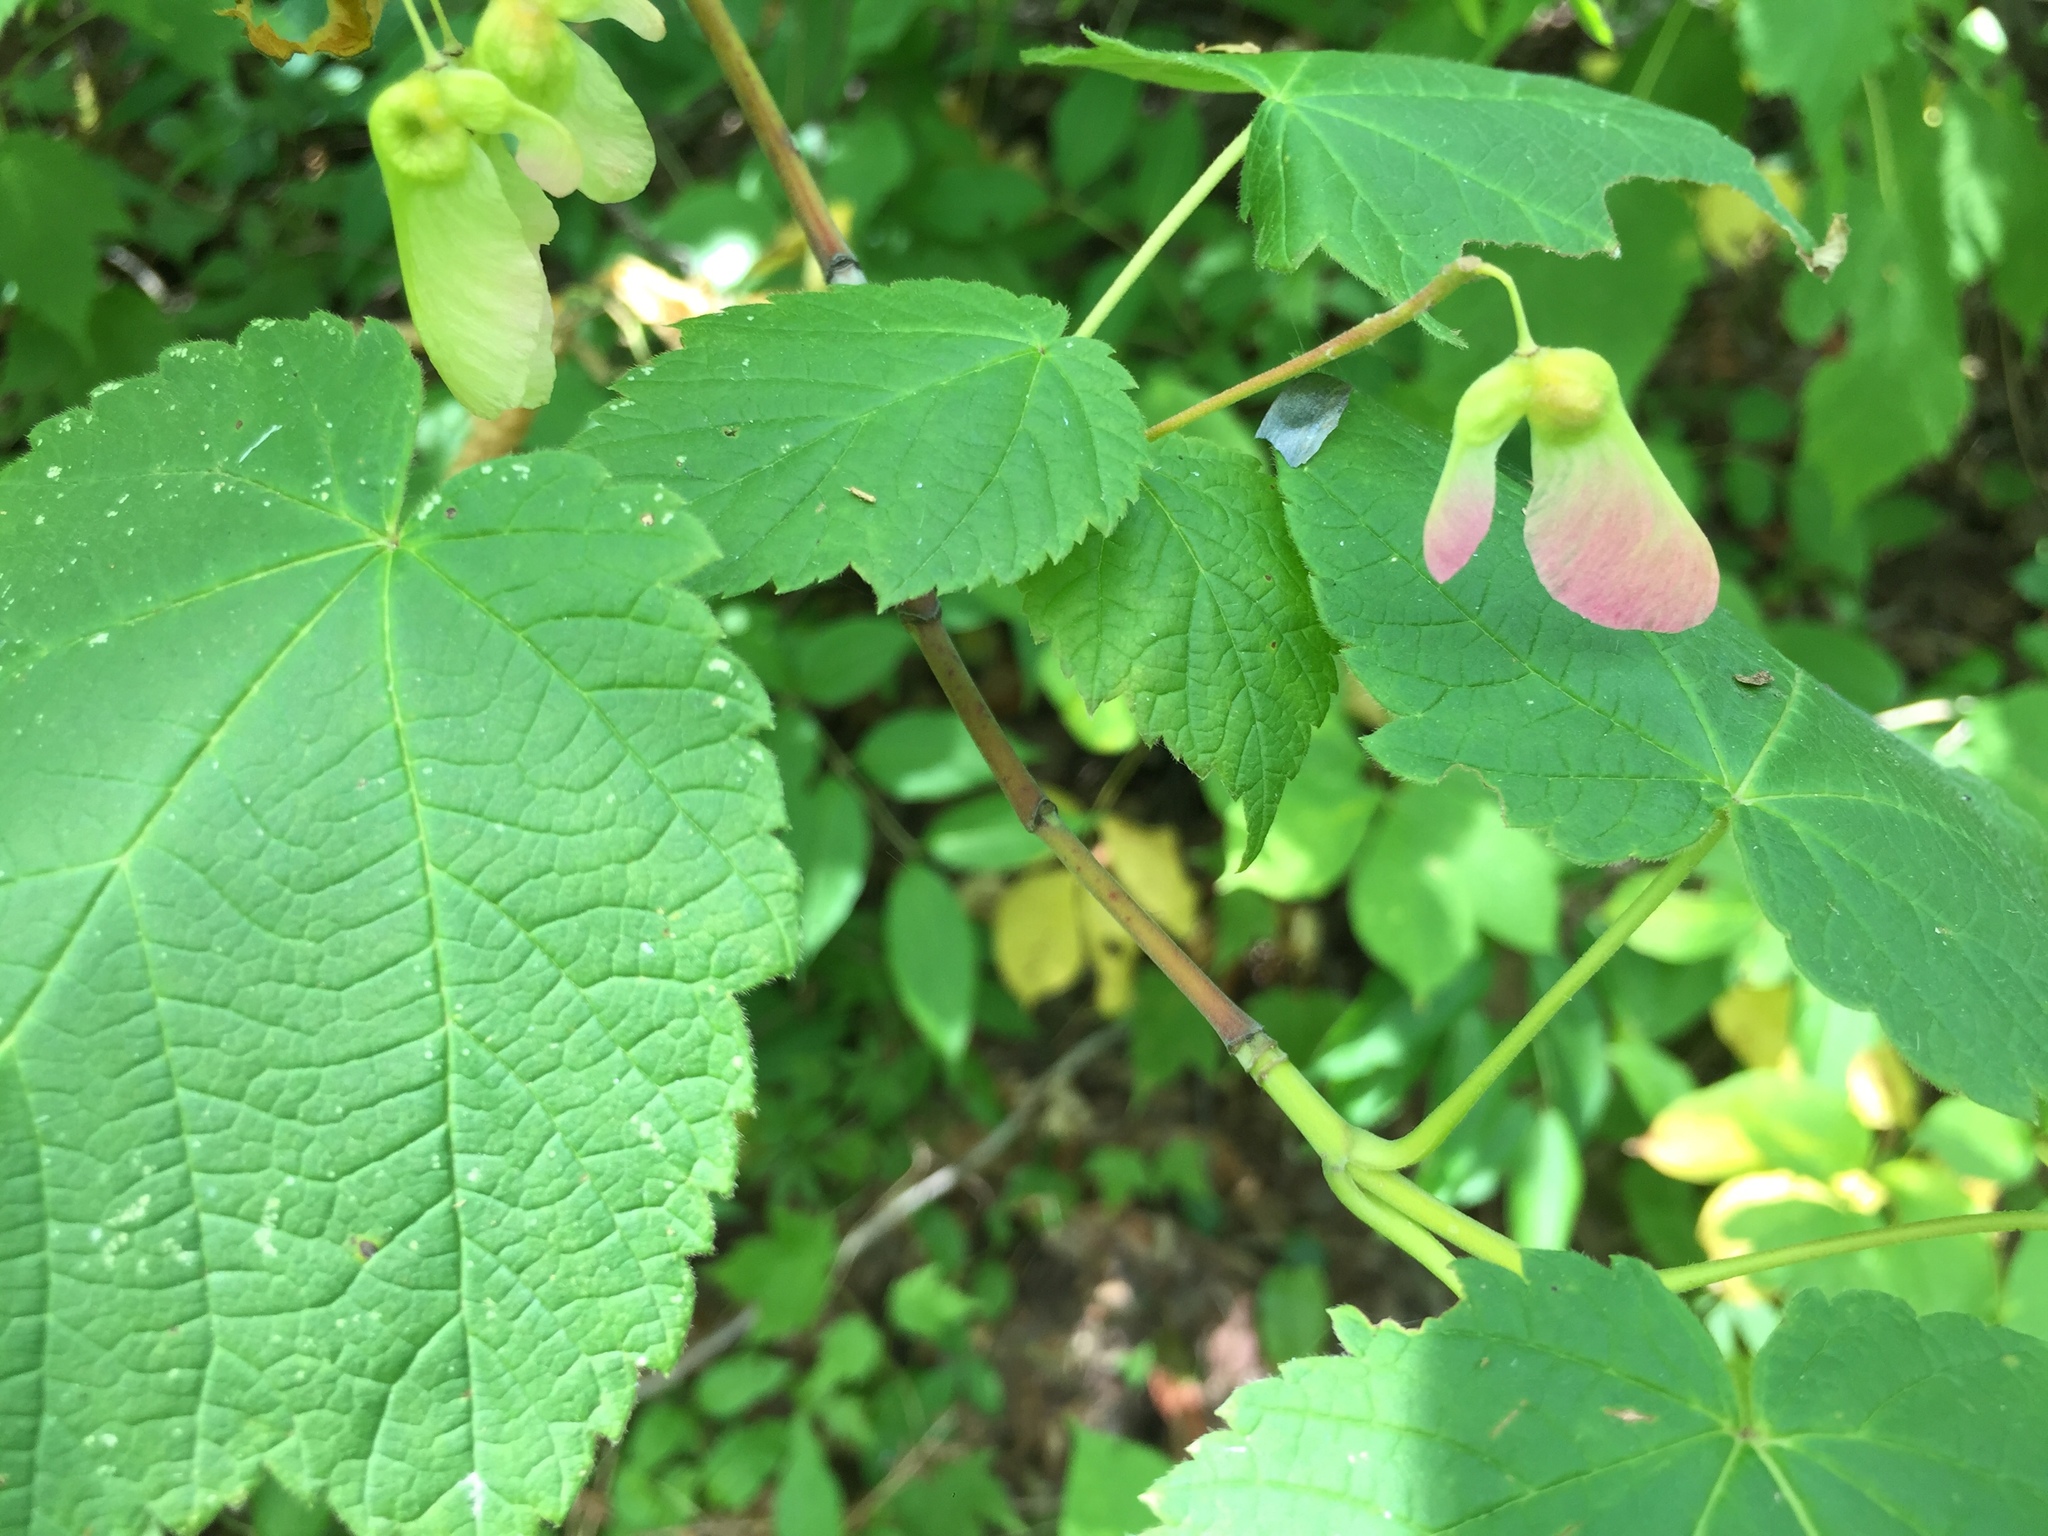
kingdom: Plantae
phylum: Tracheophyta
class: Magnoliopsida
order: Sapindales
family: Sapindaceae
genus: Acer
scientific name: Acer spicatum
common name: Mountain maple
